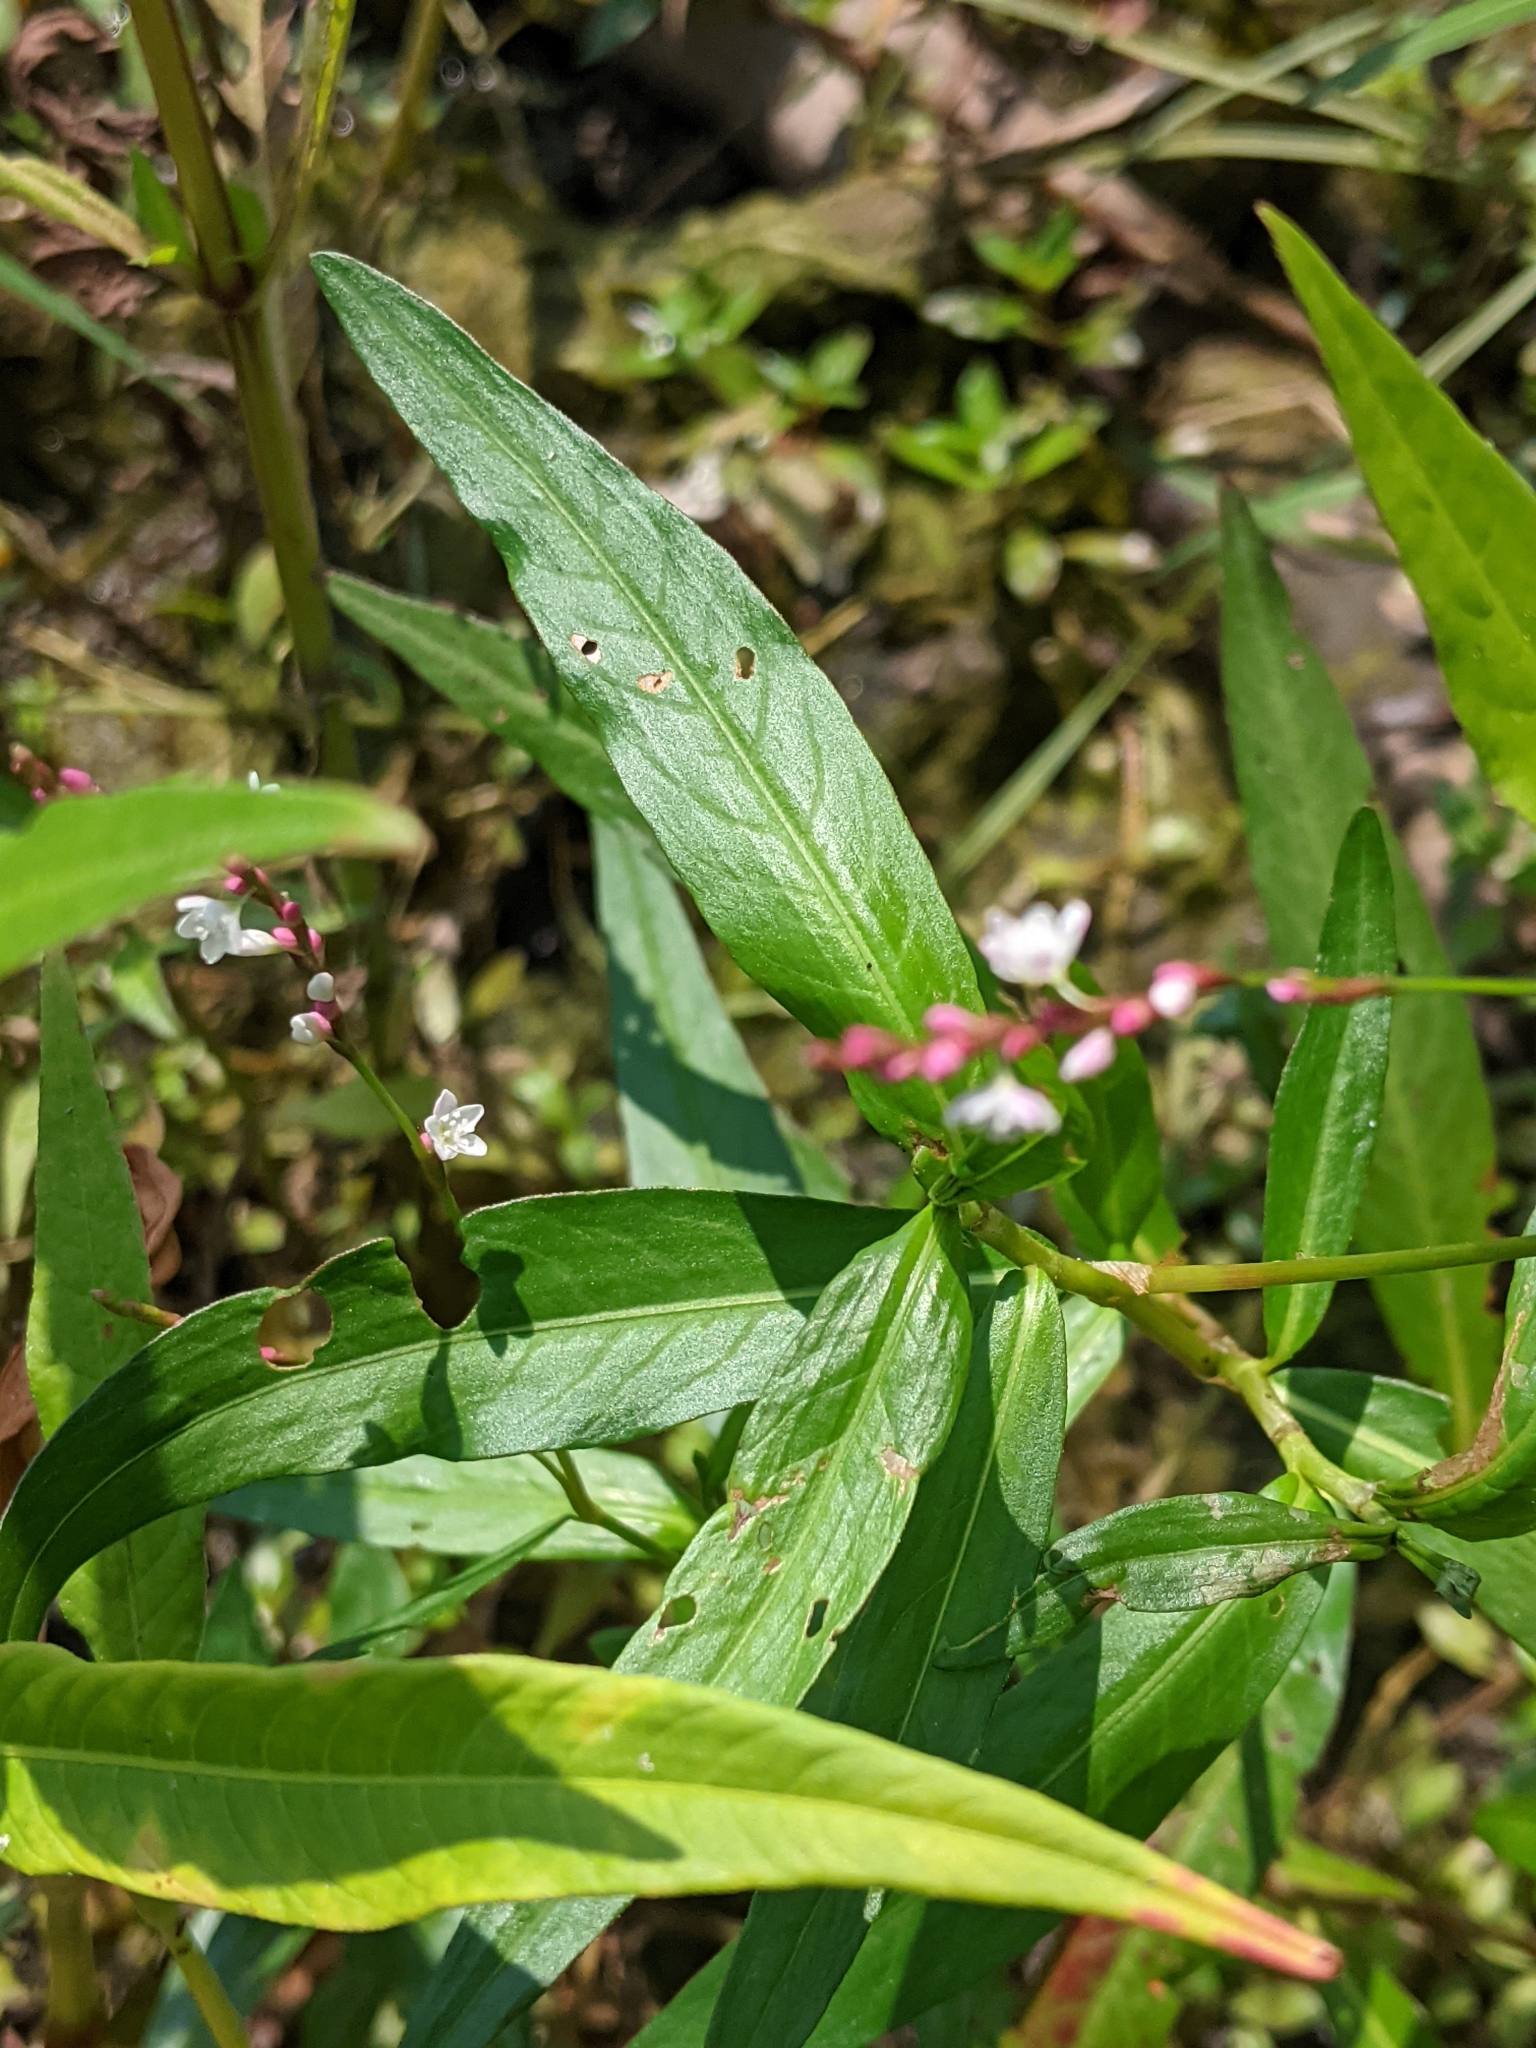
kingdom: Plantae
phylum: Tracheophyta
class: Magnoliopsida
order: Caryophyllales
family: Polygonaceae
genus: Persicaria
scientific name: Persicaria hydropiperoides
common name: Swamp smartweed
